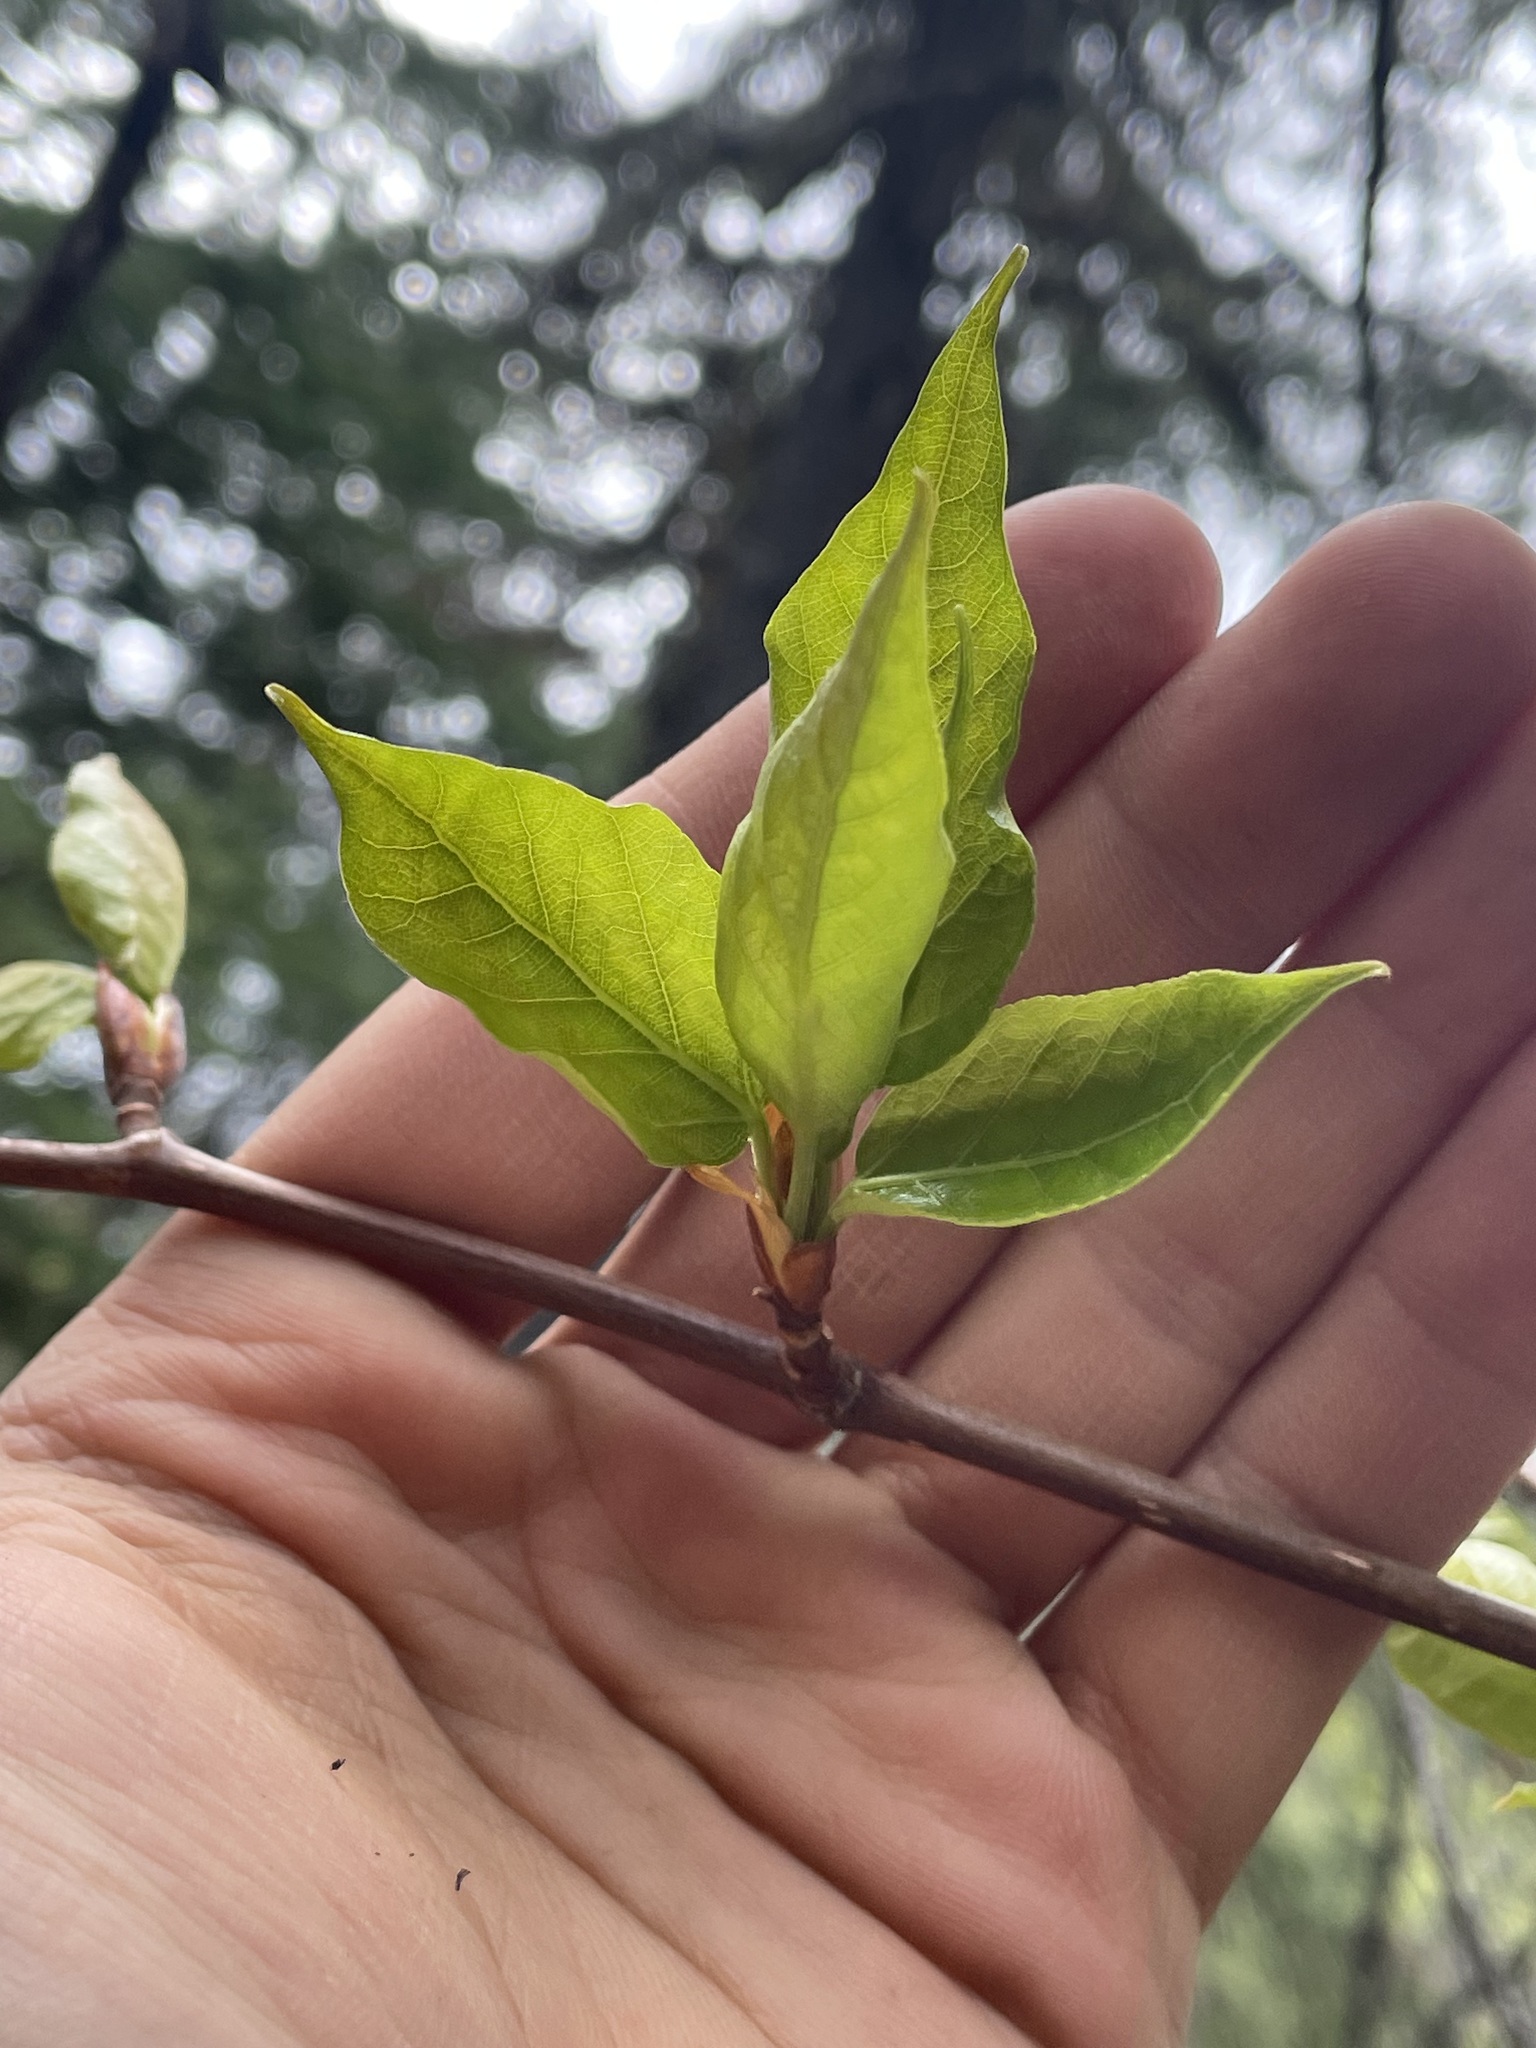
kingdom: Plantae
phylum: Tracheophyta
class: Magnoliopsida
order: Malpighiales
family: Salicaceae
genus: Populus
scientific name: Populus balsamifera
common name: Balsam poplar
